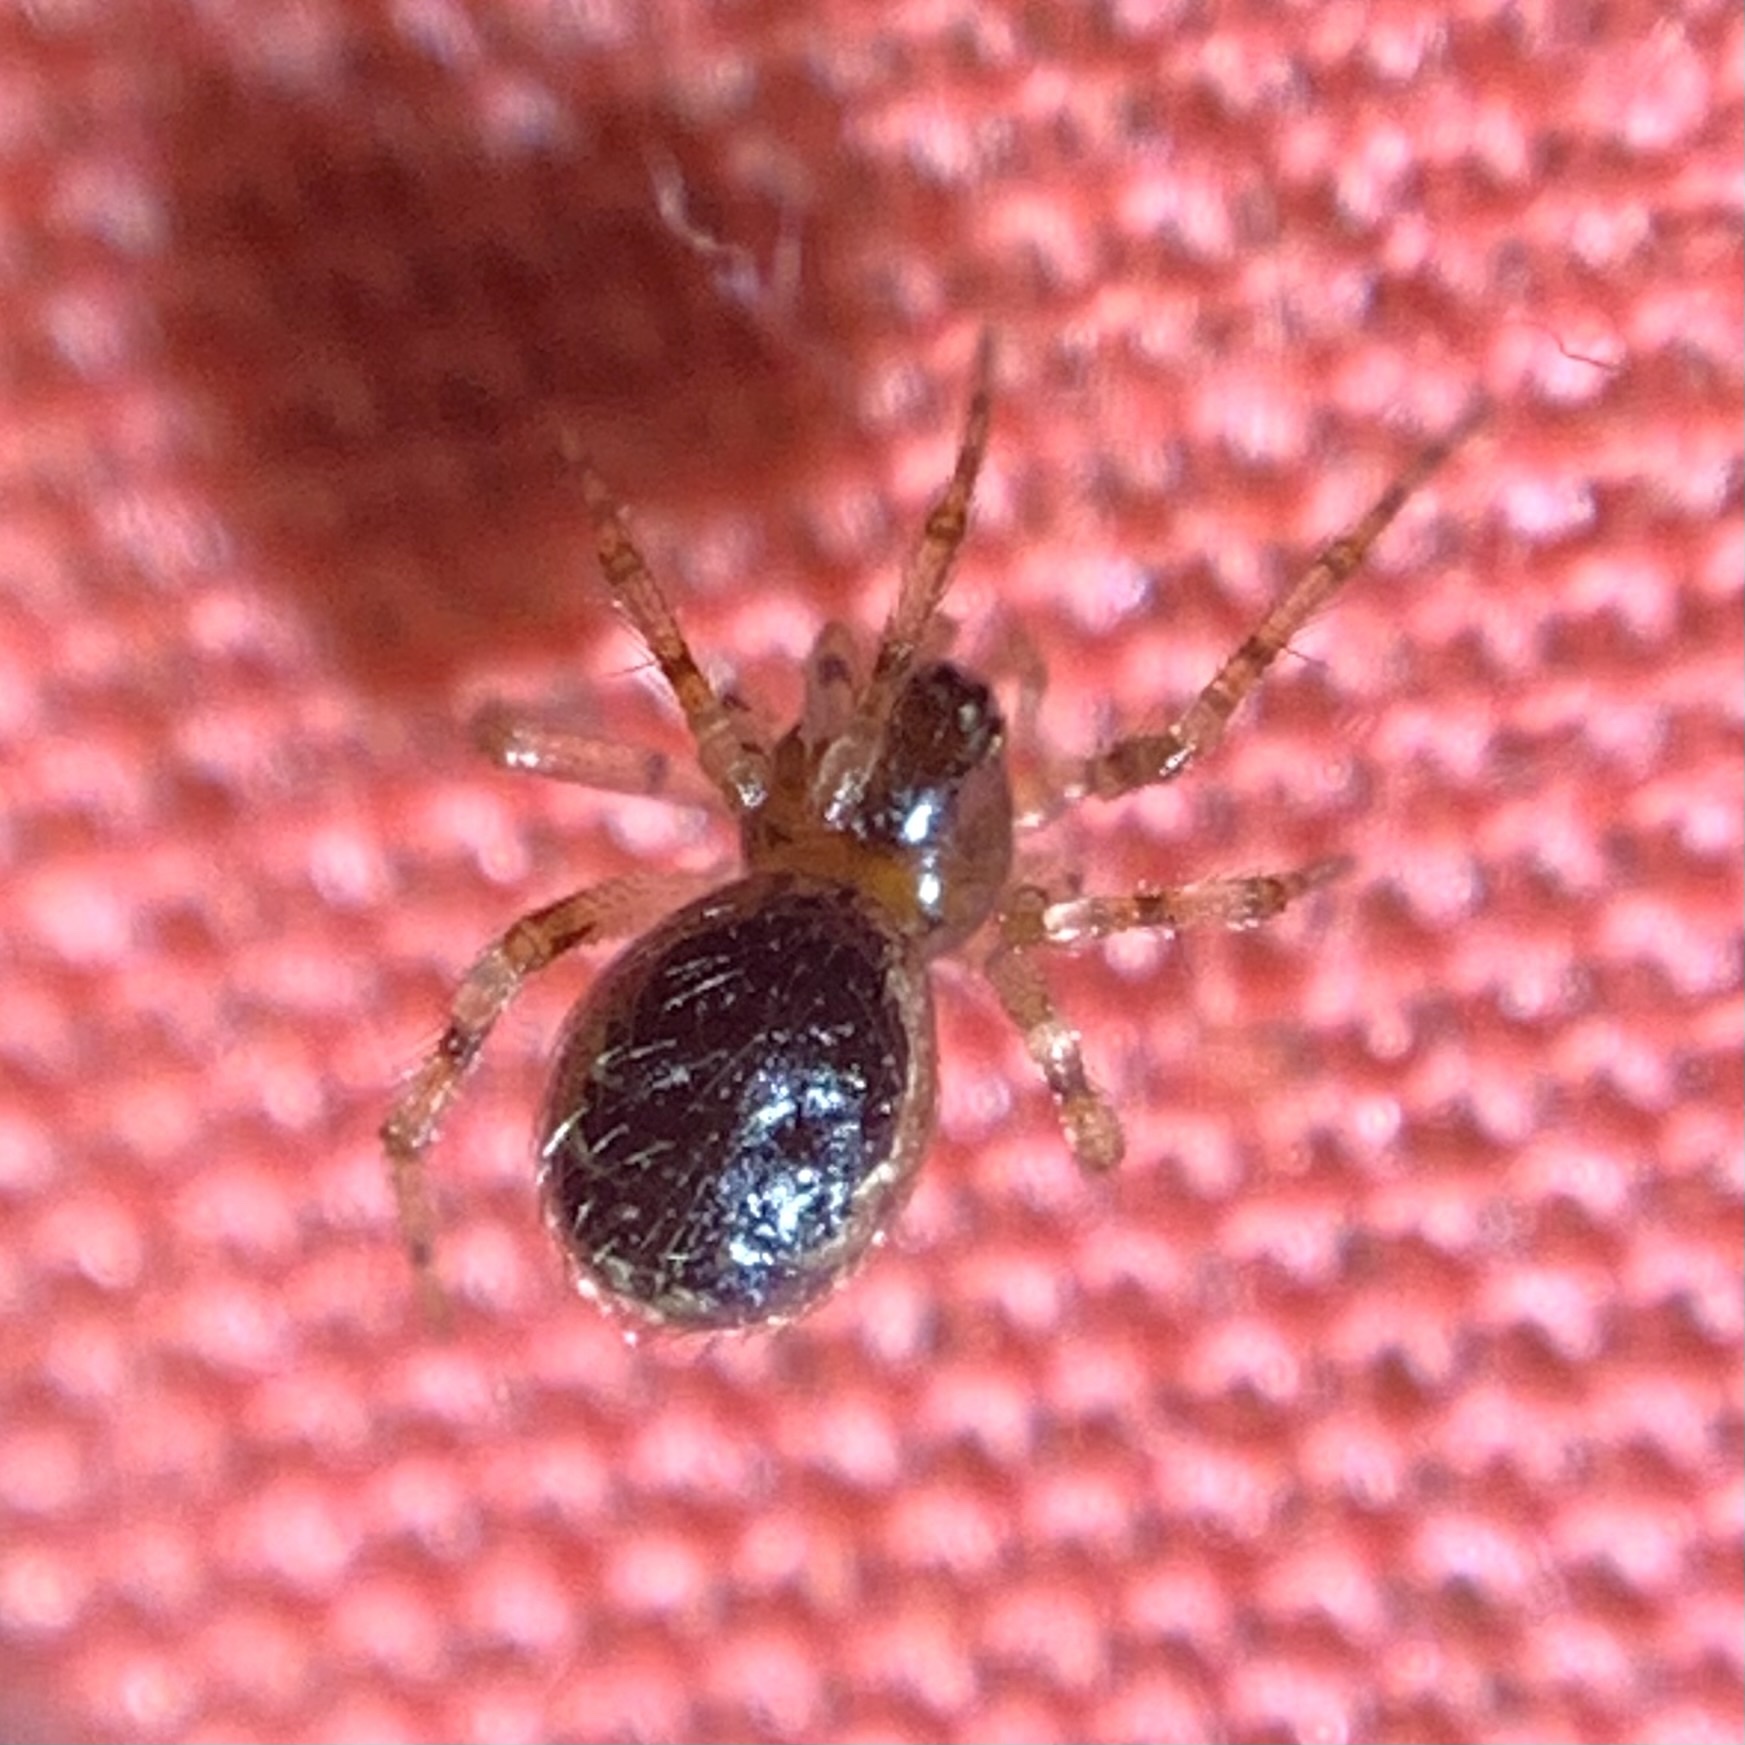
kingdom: Animalia
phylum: Arthropoda
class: Arachnida
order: Araneae
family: Theridiidae
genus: Sardinidion
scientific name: Sardinidion blackwalli
